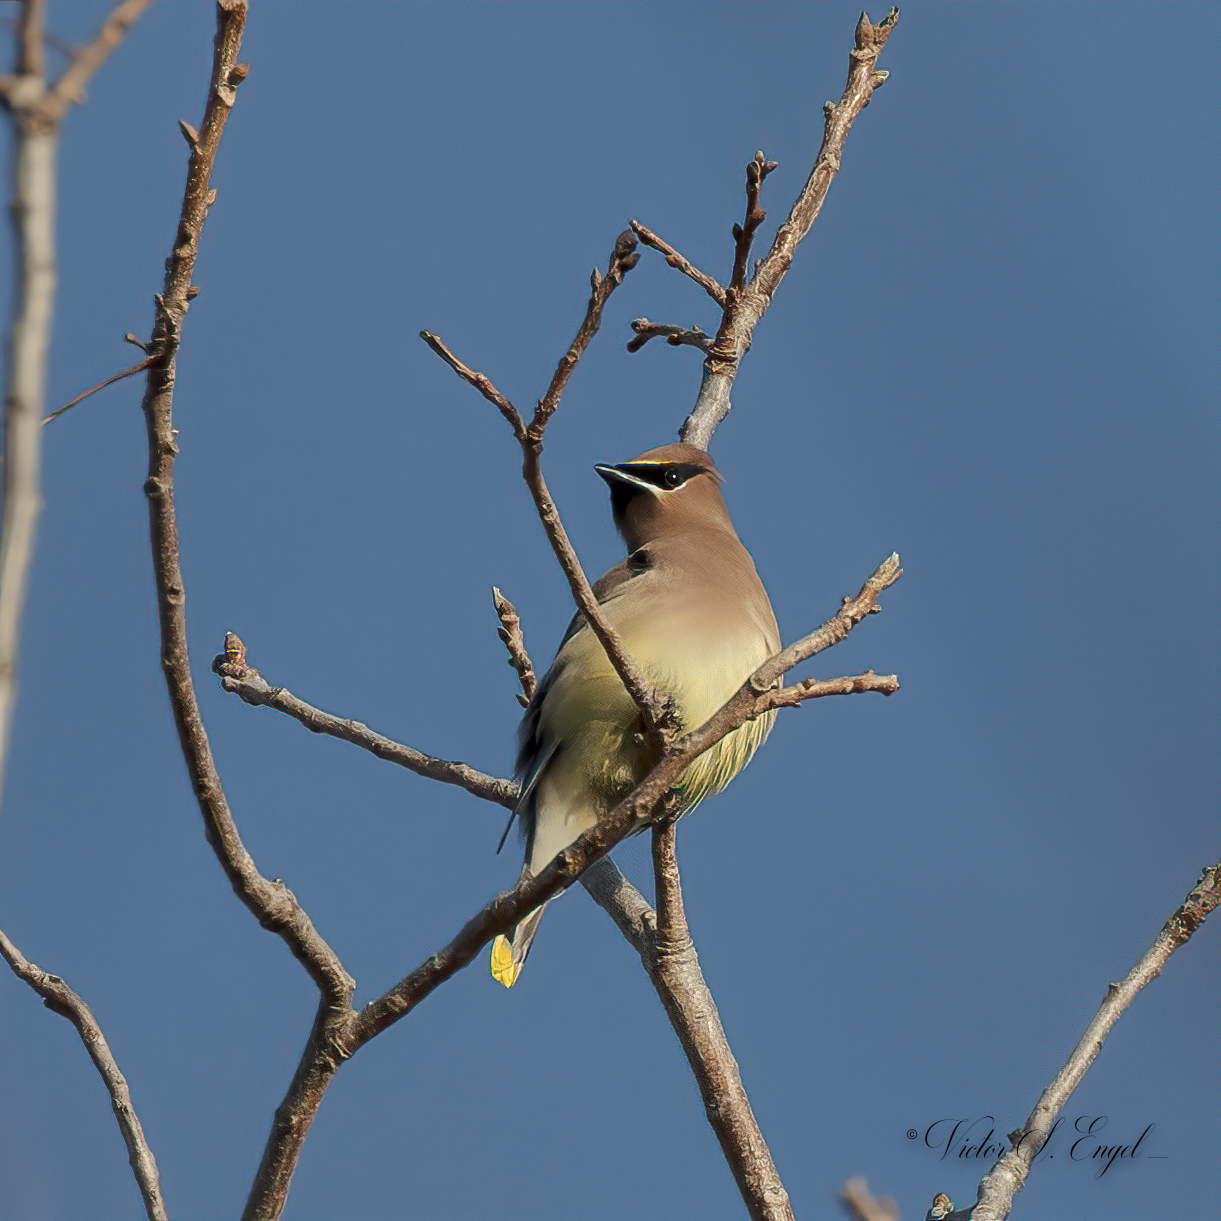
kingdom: Animalia
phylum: Chordata
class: Aves
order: Passeriformes
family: Bombycillidae
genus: Bombycilla
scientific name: Bombycilla cedrorum
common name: Cedar waxwing
